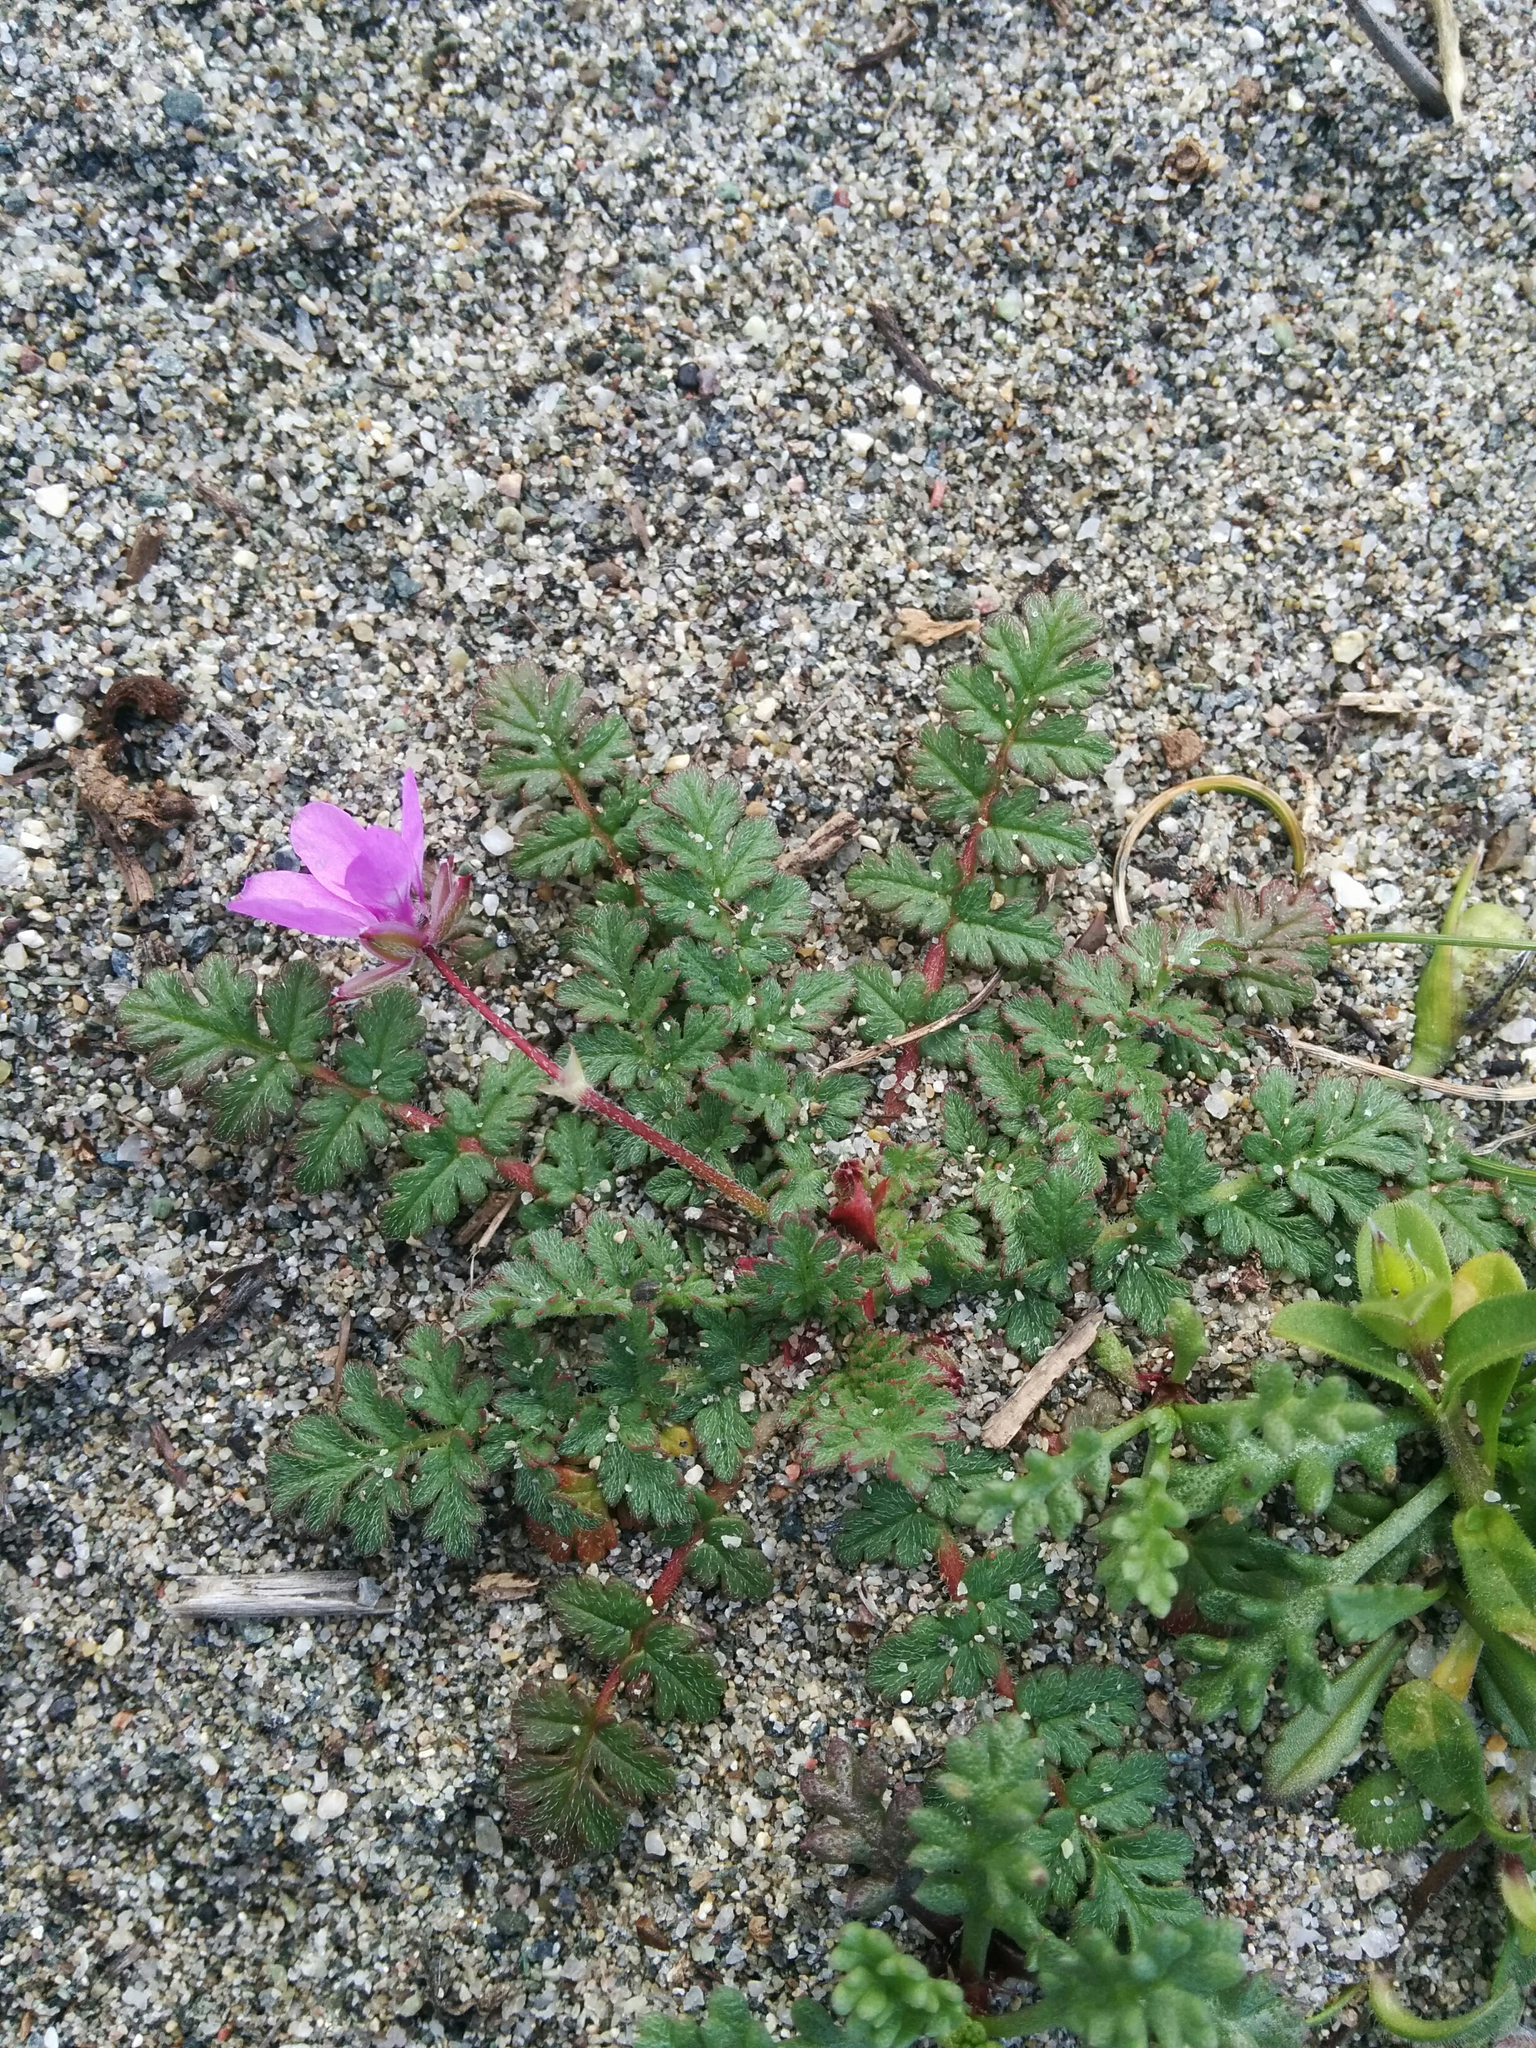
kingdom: Plantae
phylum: Tracheophyta
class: Magnoliopsida
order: Geraniales
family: Geraniaceae
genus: Erodium
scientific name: Erodium cicutarium
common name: Common stork's-bill
